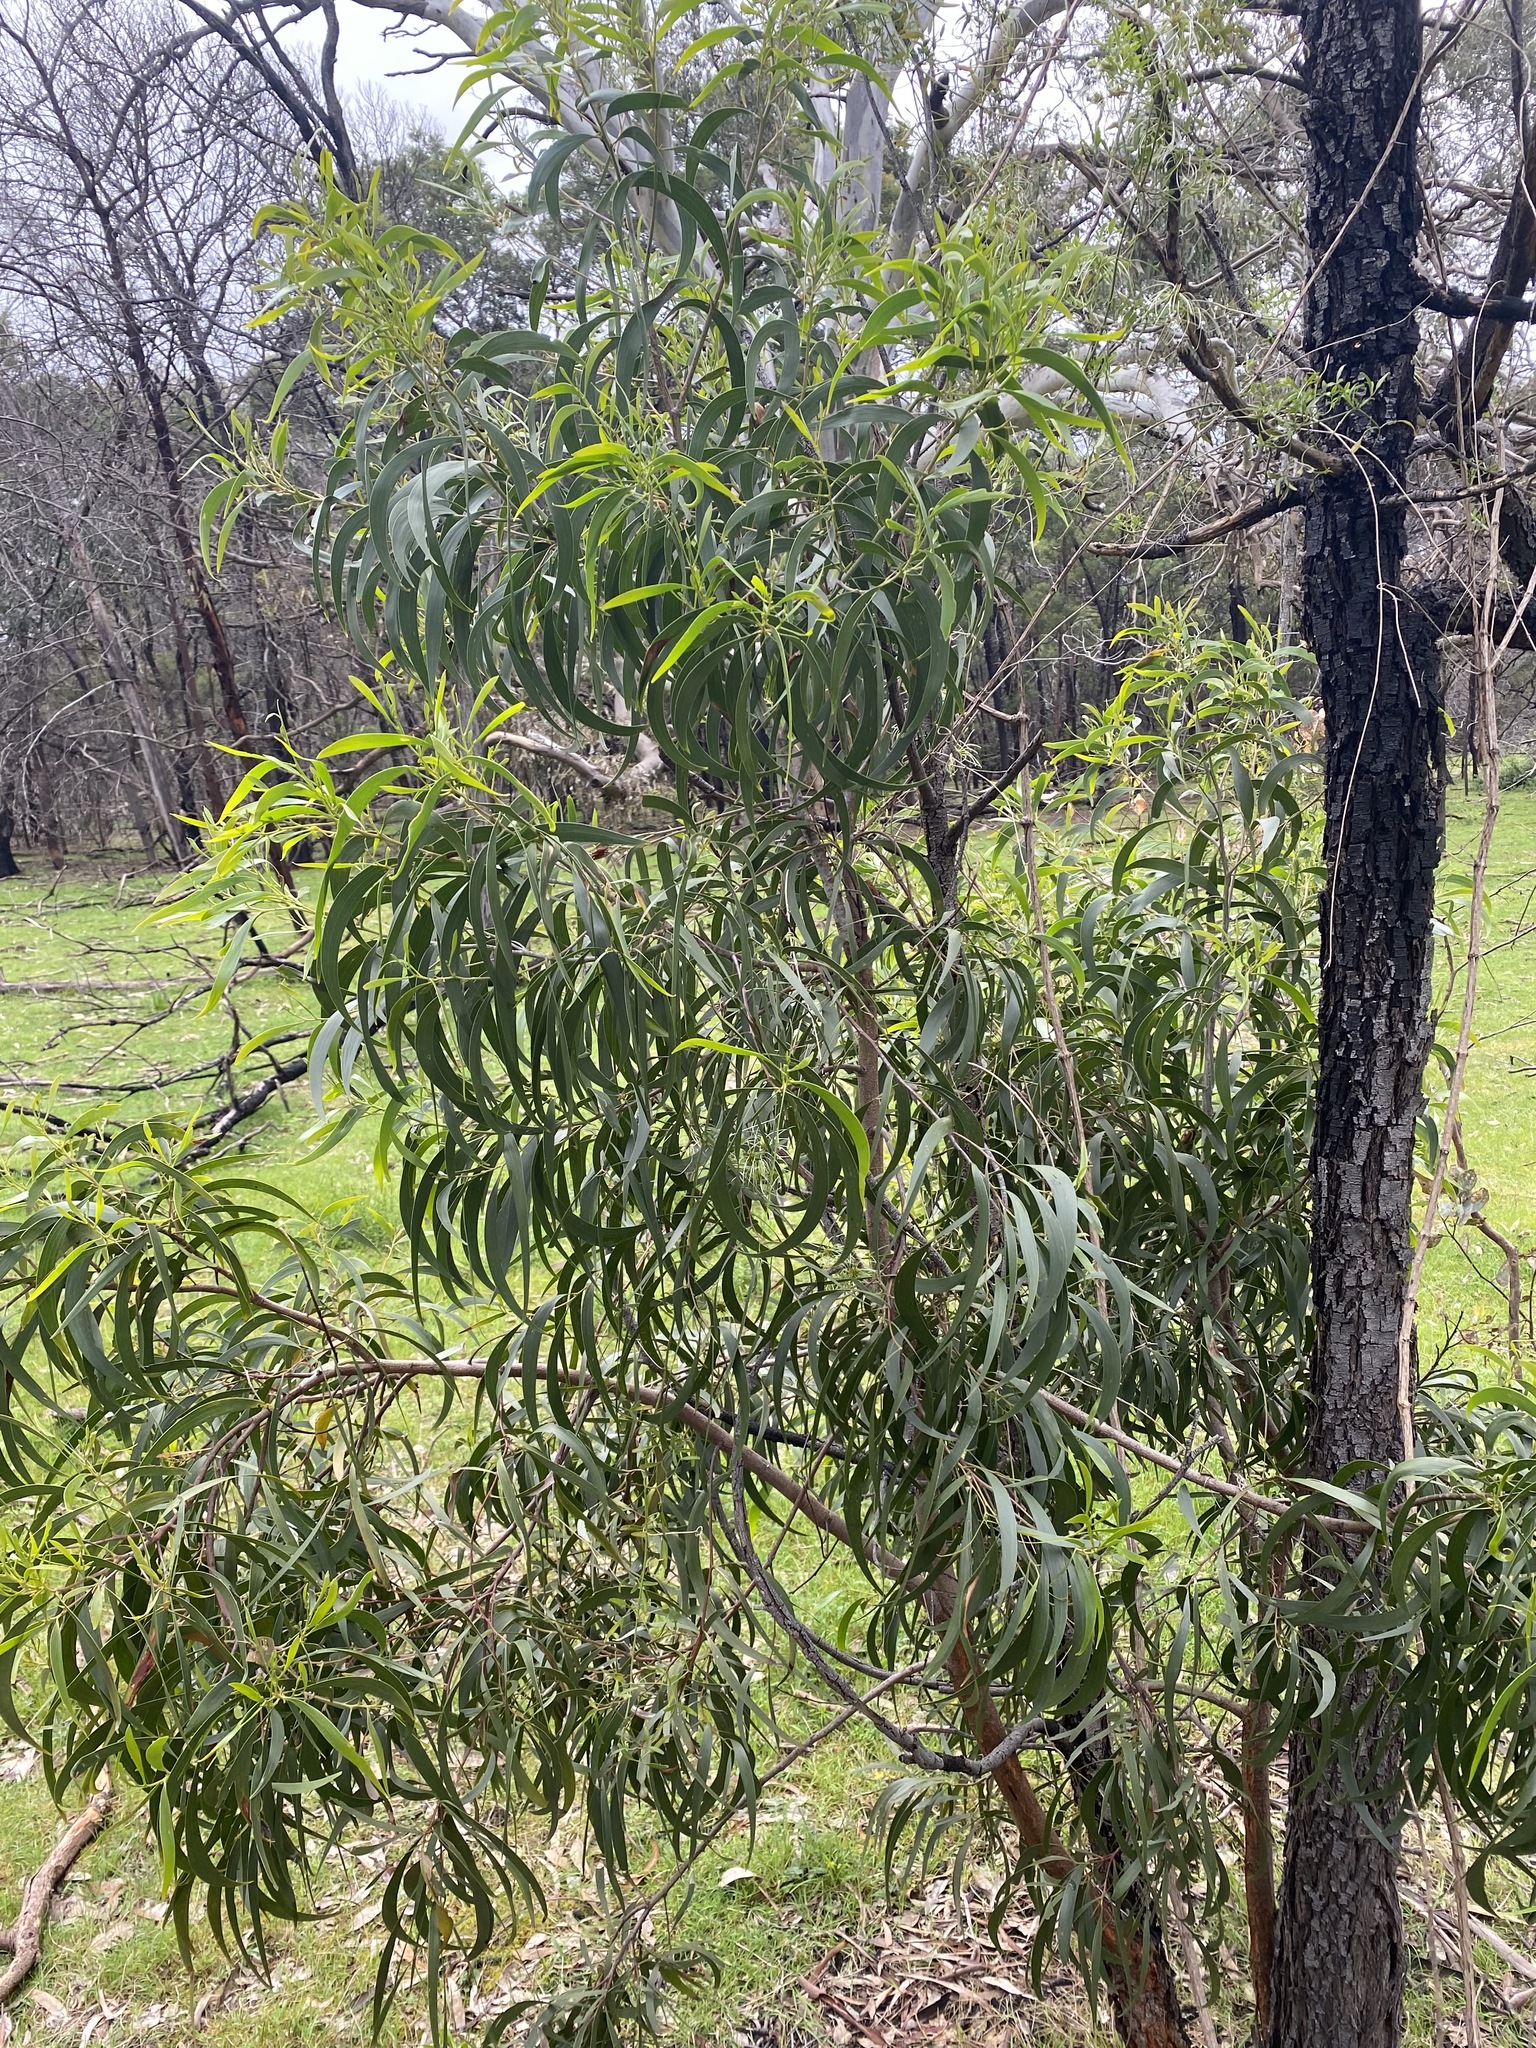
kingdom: Plantae
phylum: Tracheophyta
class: Magnoliopsida
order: Fabales
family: Fabaceae
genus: Acacia
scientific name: Acacia implexa
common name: Black wattle
